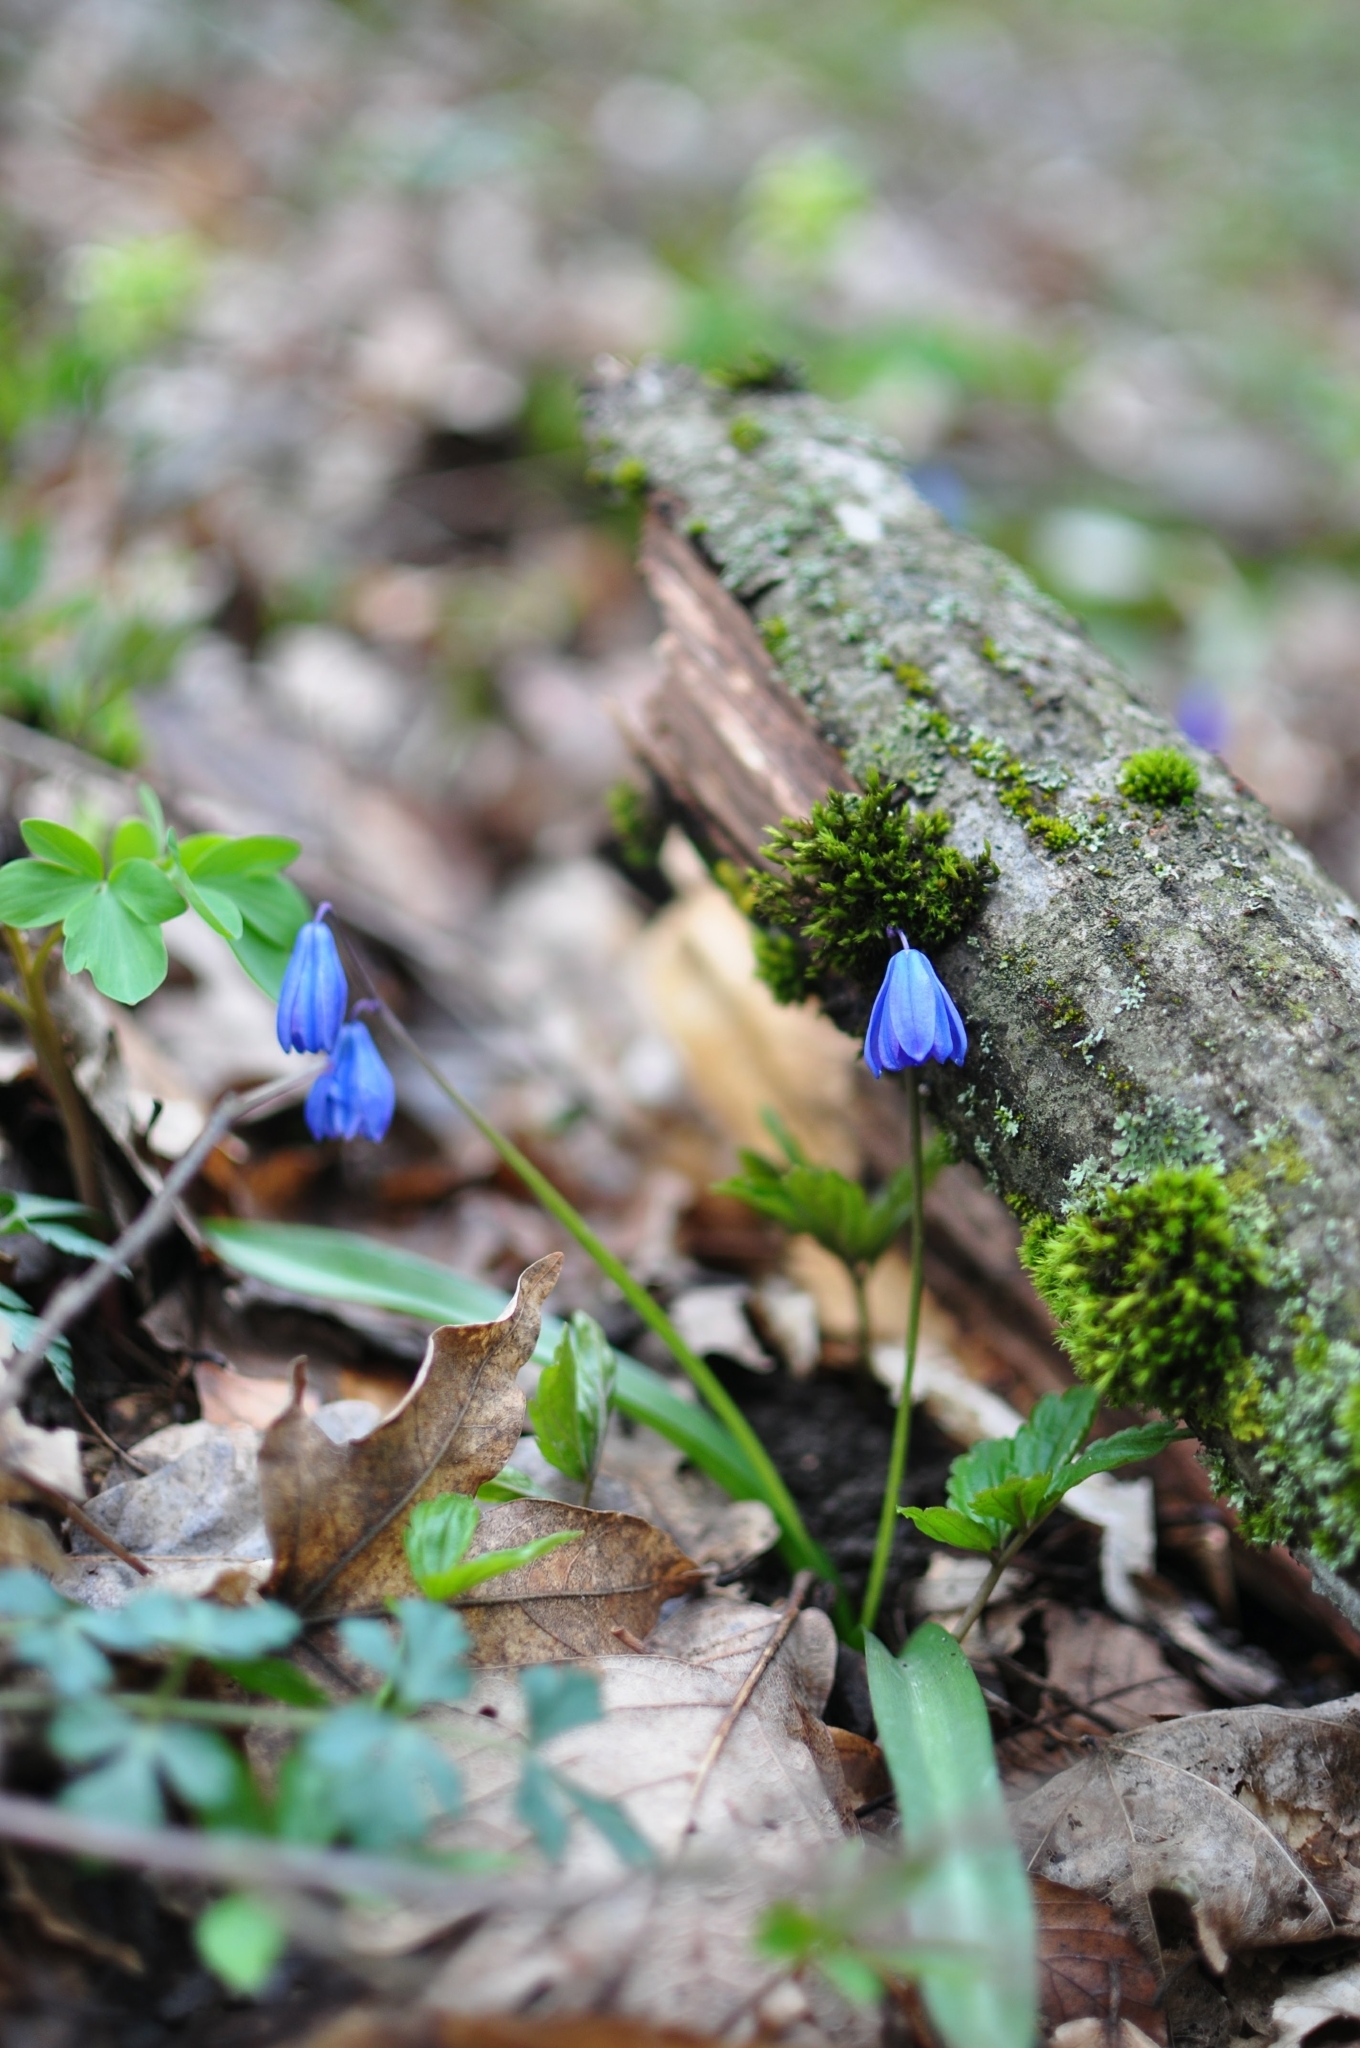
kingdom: Plantae
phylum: Tracheophyta
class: Liliopsida
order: Asparagales
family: Asparagaceae
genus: Scilla
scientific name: Scilla siberica
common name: Siberian squill
